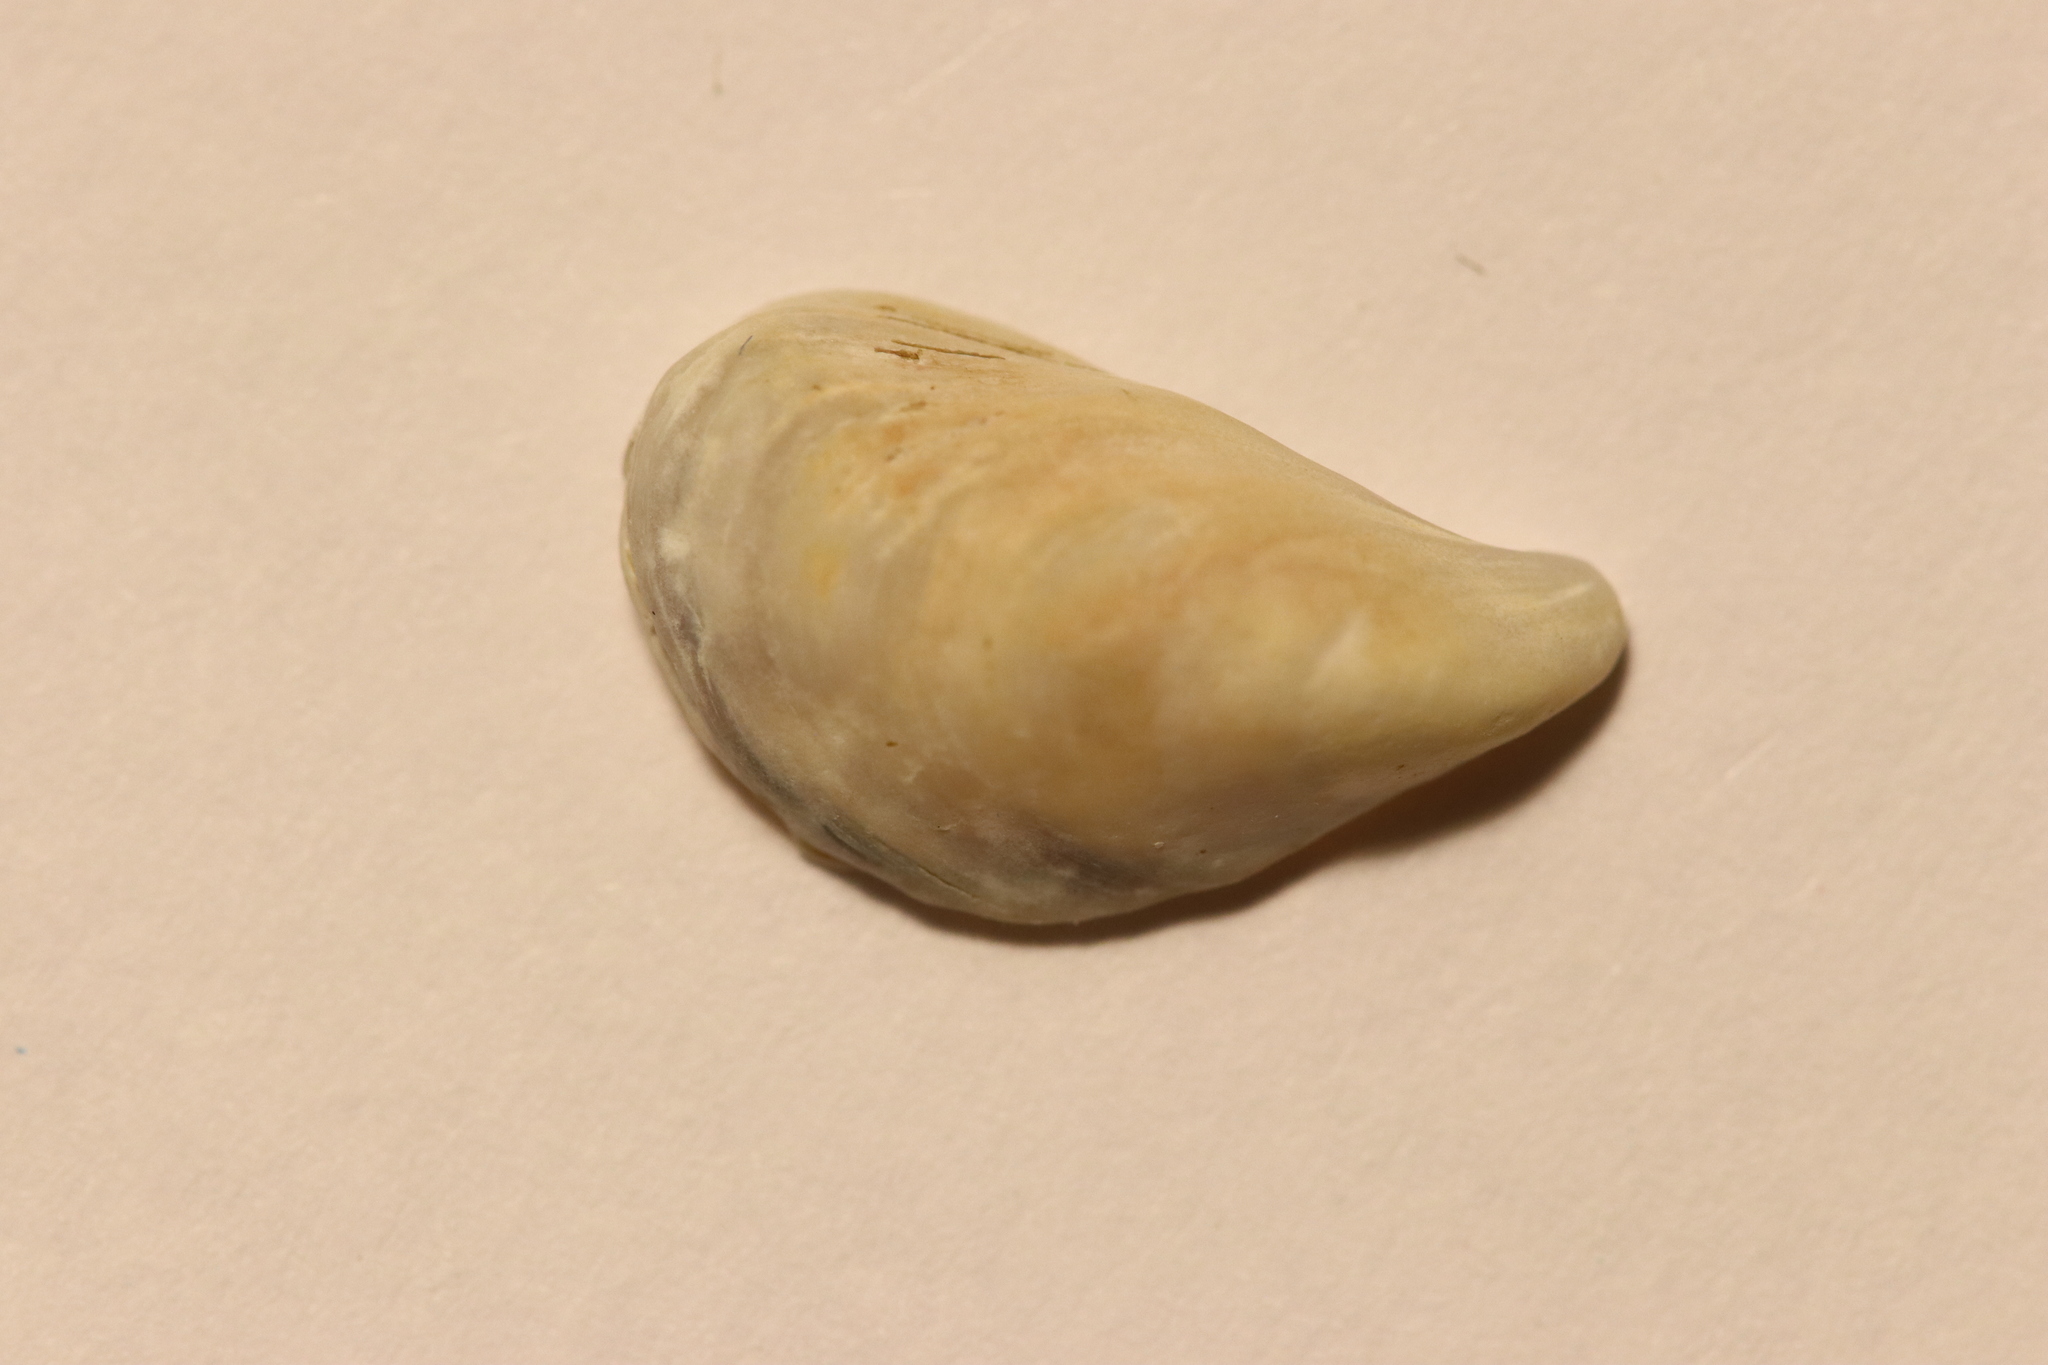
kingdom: Animalia
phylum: Mollusca
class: Bivalvia
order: Myida
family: Dreissenidae
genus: Dreissena
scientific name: Dreissena bugensis
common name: Quagga mussel
